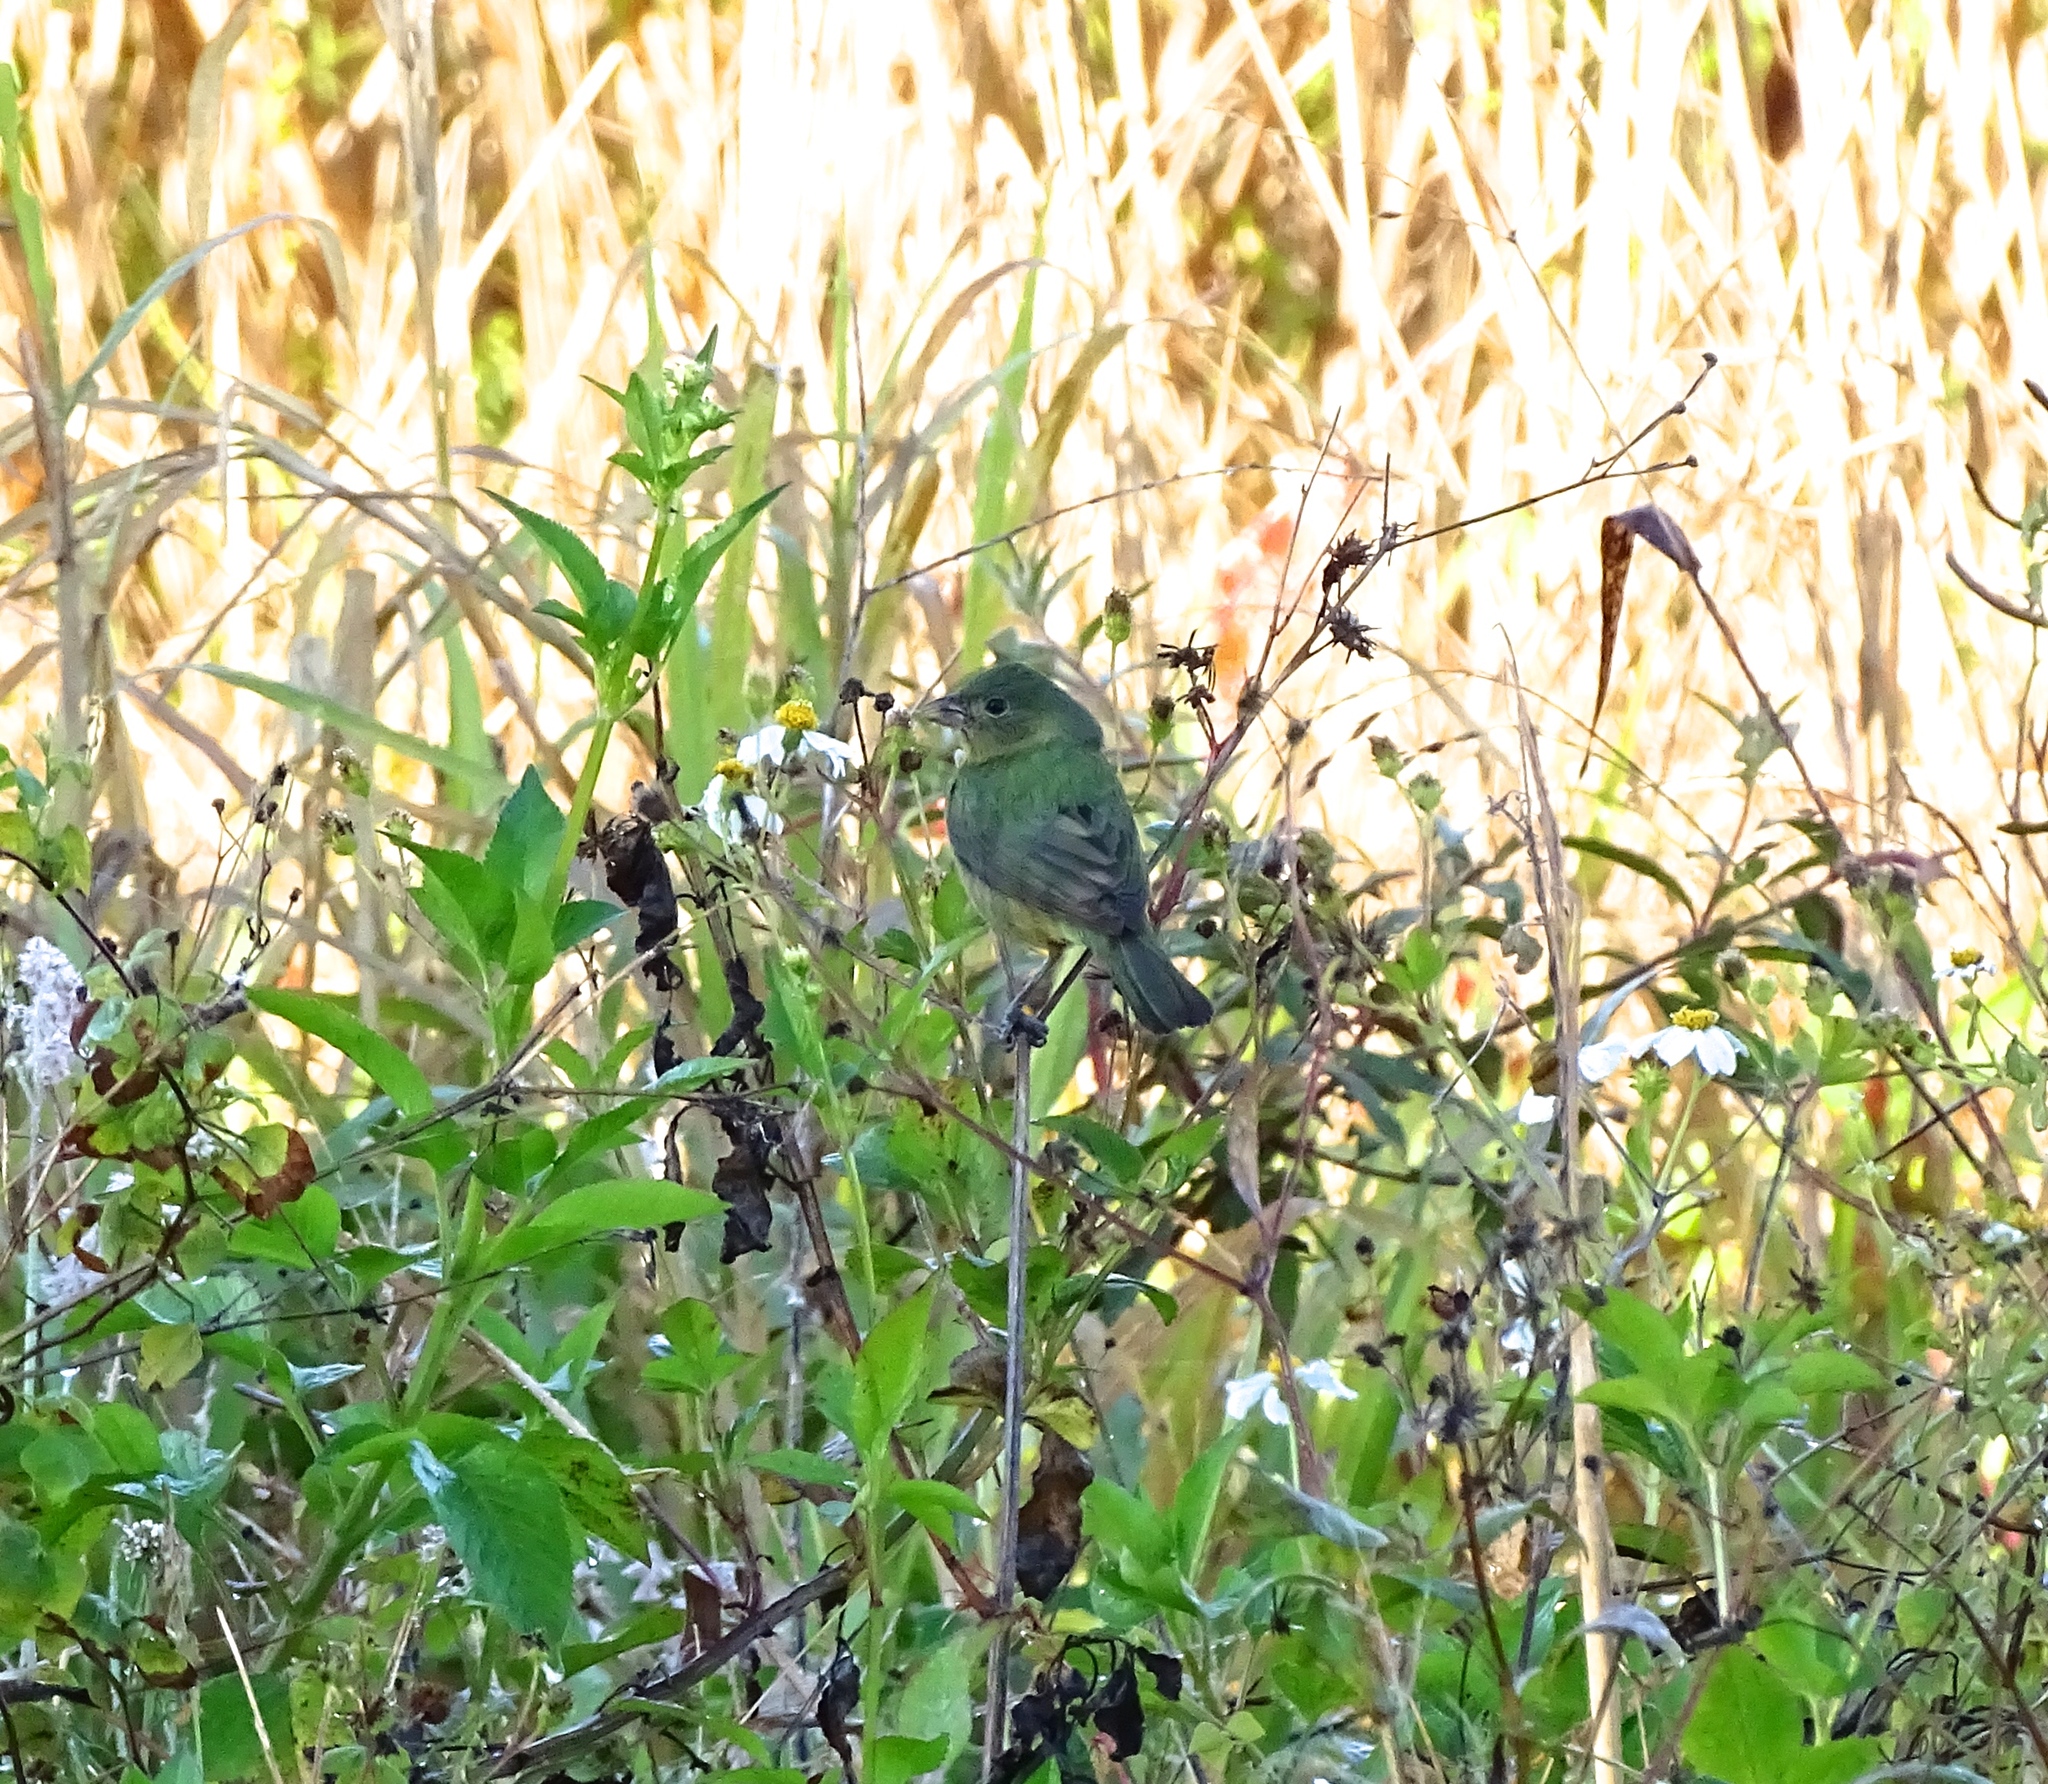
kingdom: Animalia
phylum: Chordata
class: Aves
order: Passeriformes
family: Cardinalidae
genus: Passerina
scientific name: Passerina ciris
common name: Painted bunting
